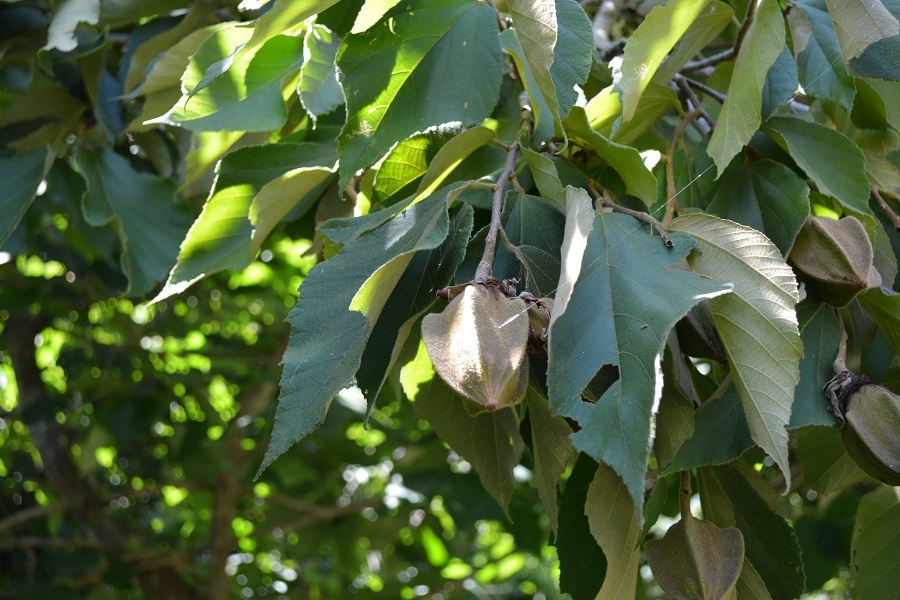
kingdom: Plantae
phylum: Tracheophyta
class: Magnoliopsida
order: Malvales
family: Malvaceae
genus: Luehea
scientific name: Luehea speciosa
